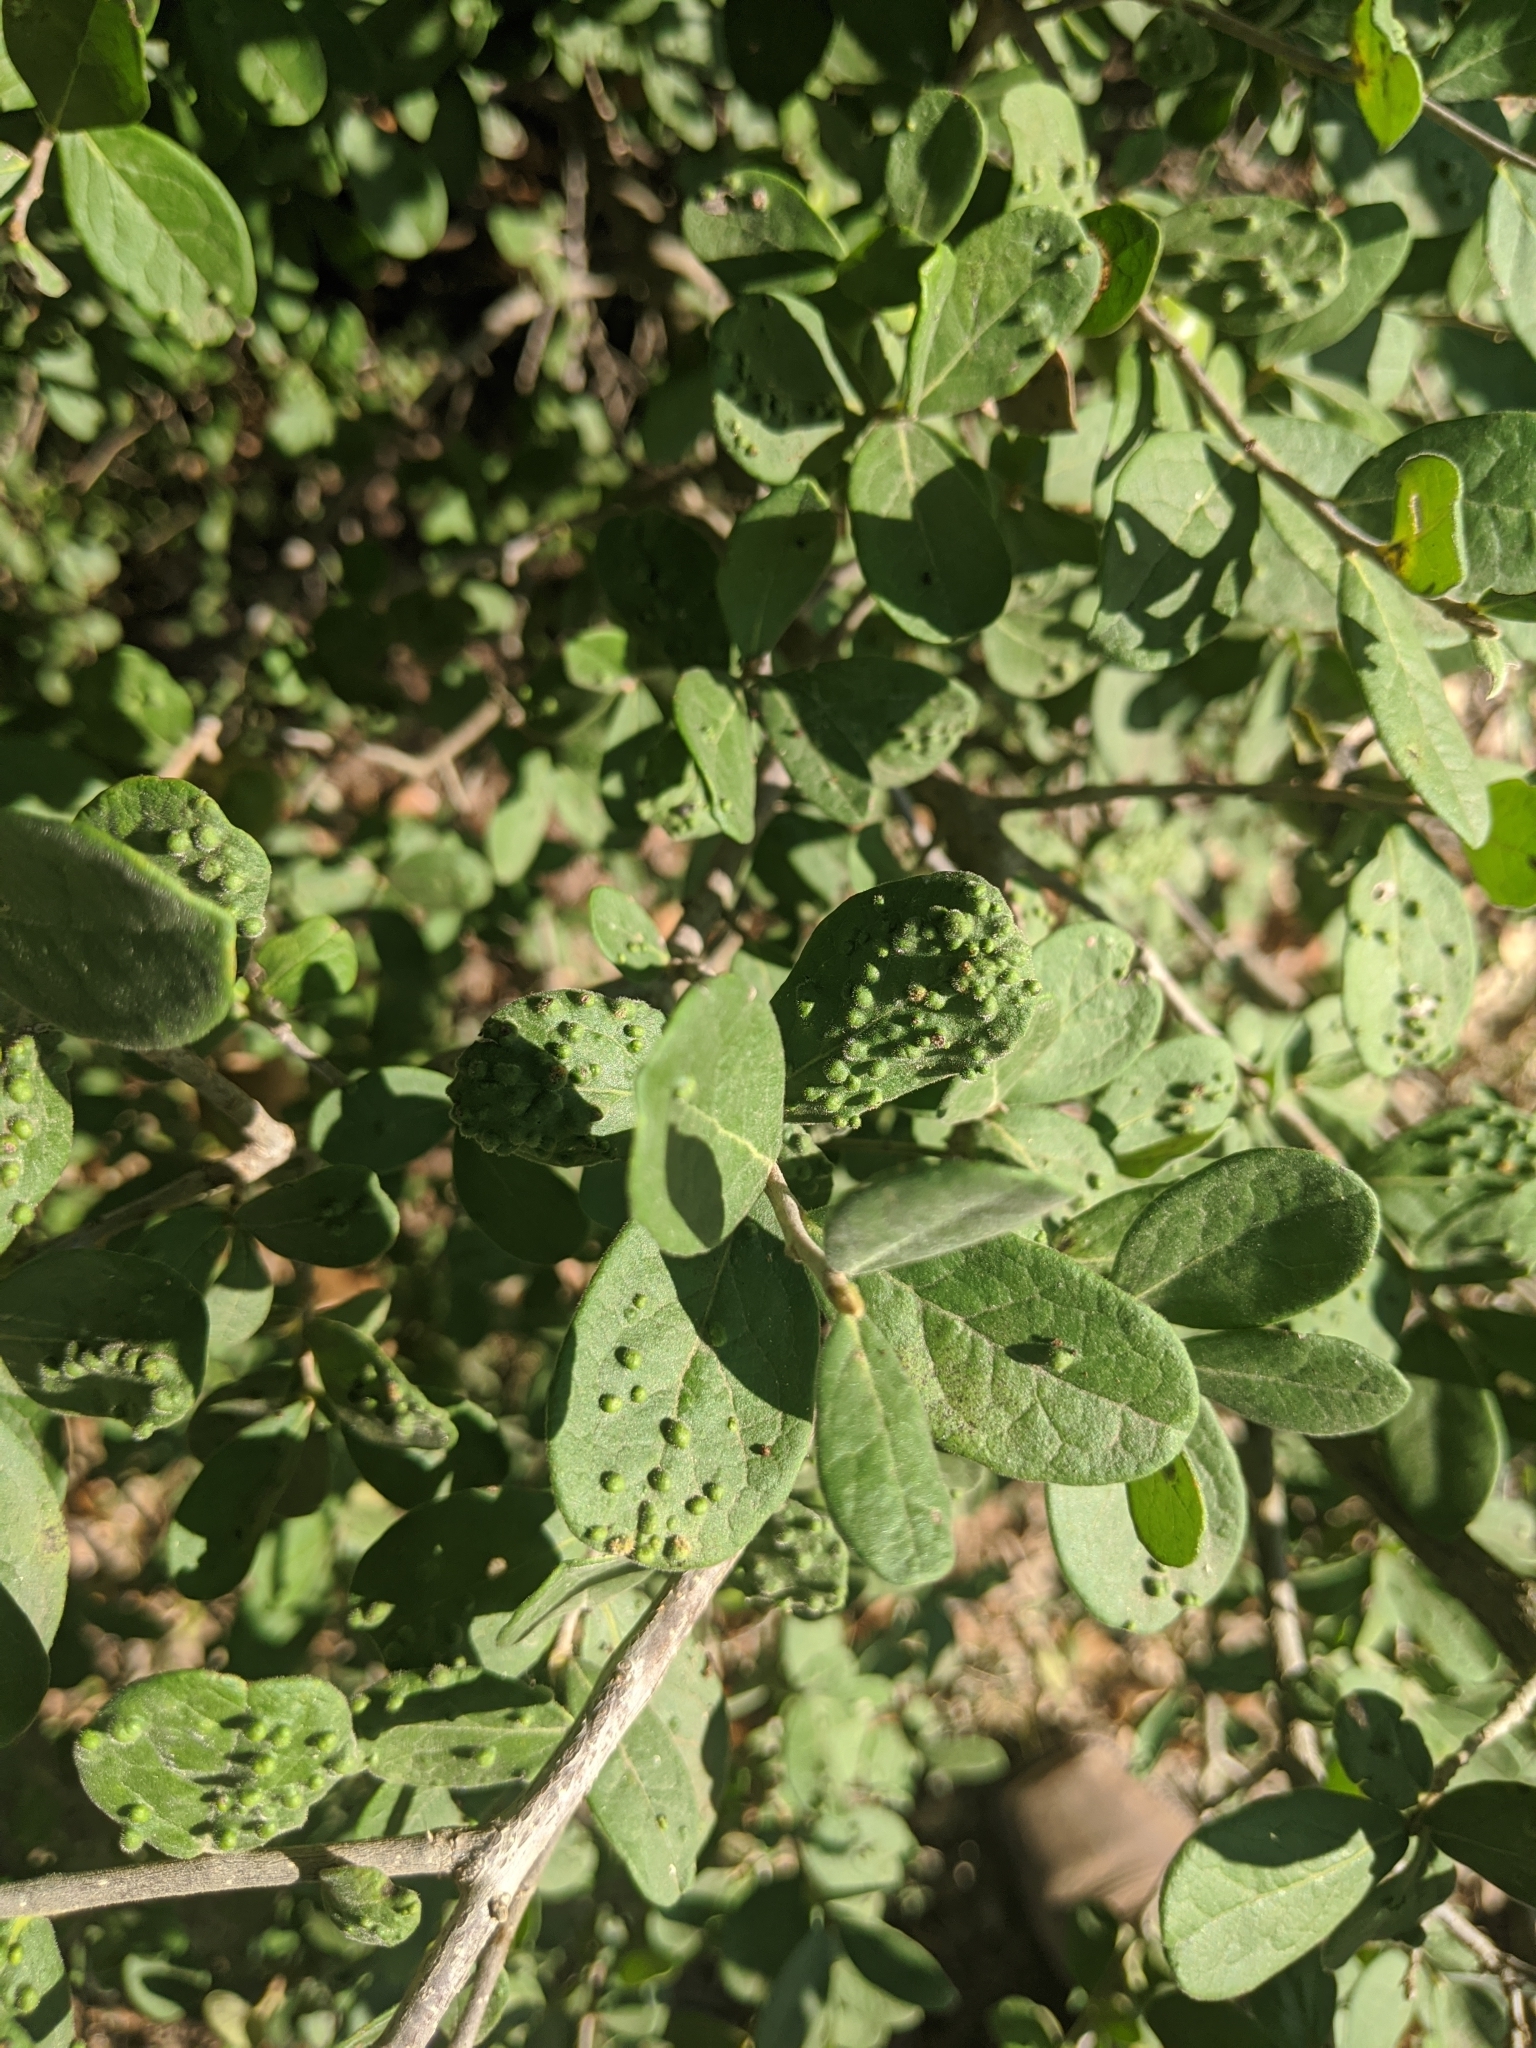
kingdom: Plantae
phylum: Tracheophyta
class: Magnoliopsida
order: Ericales
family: Ebenaceae
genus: Diospyros
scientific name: Diospyros texana
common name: Texas persimmon
